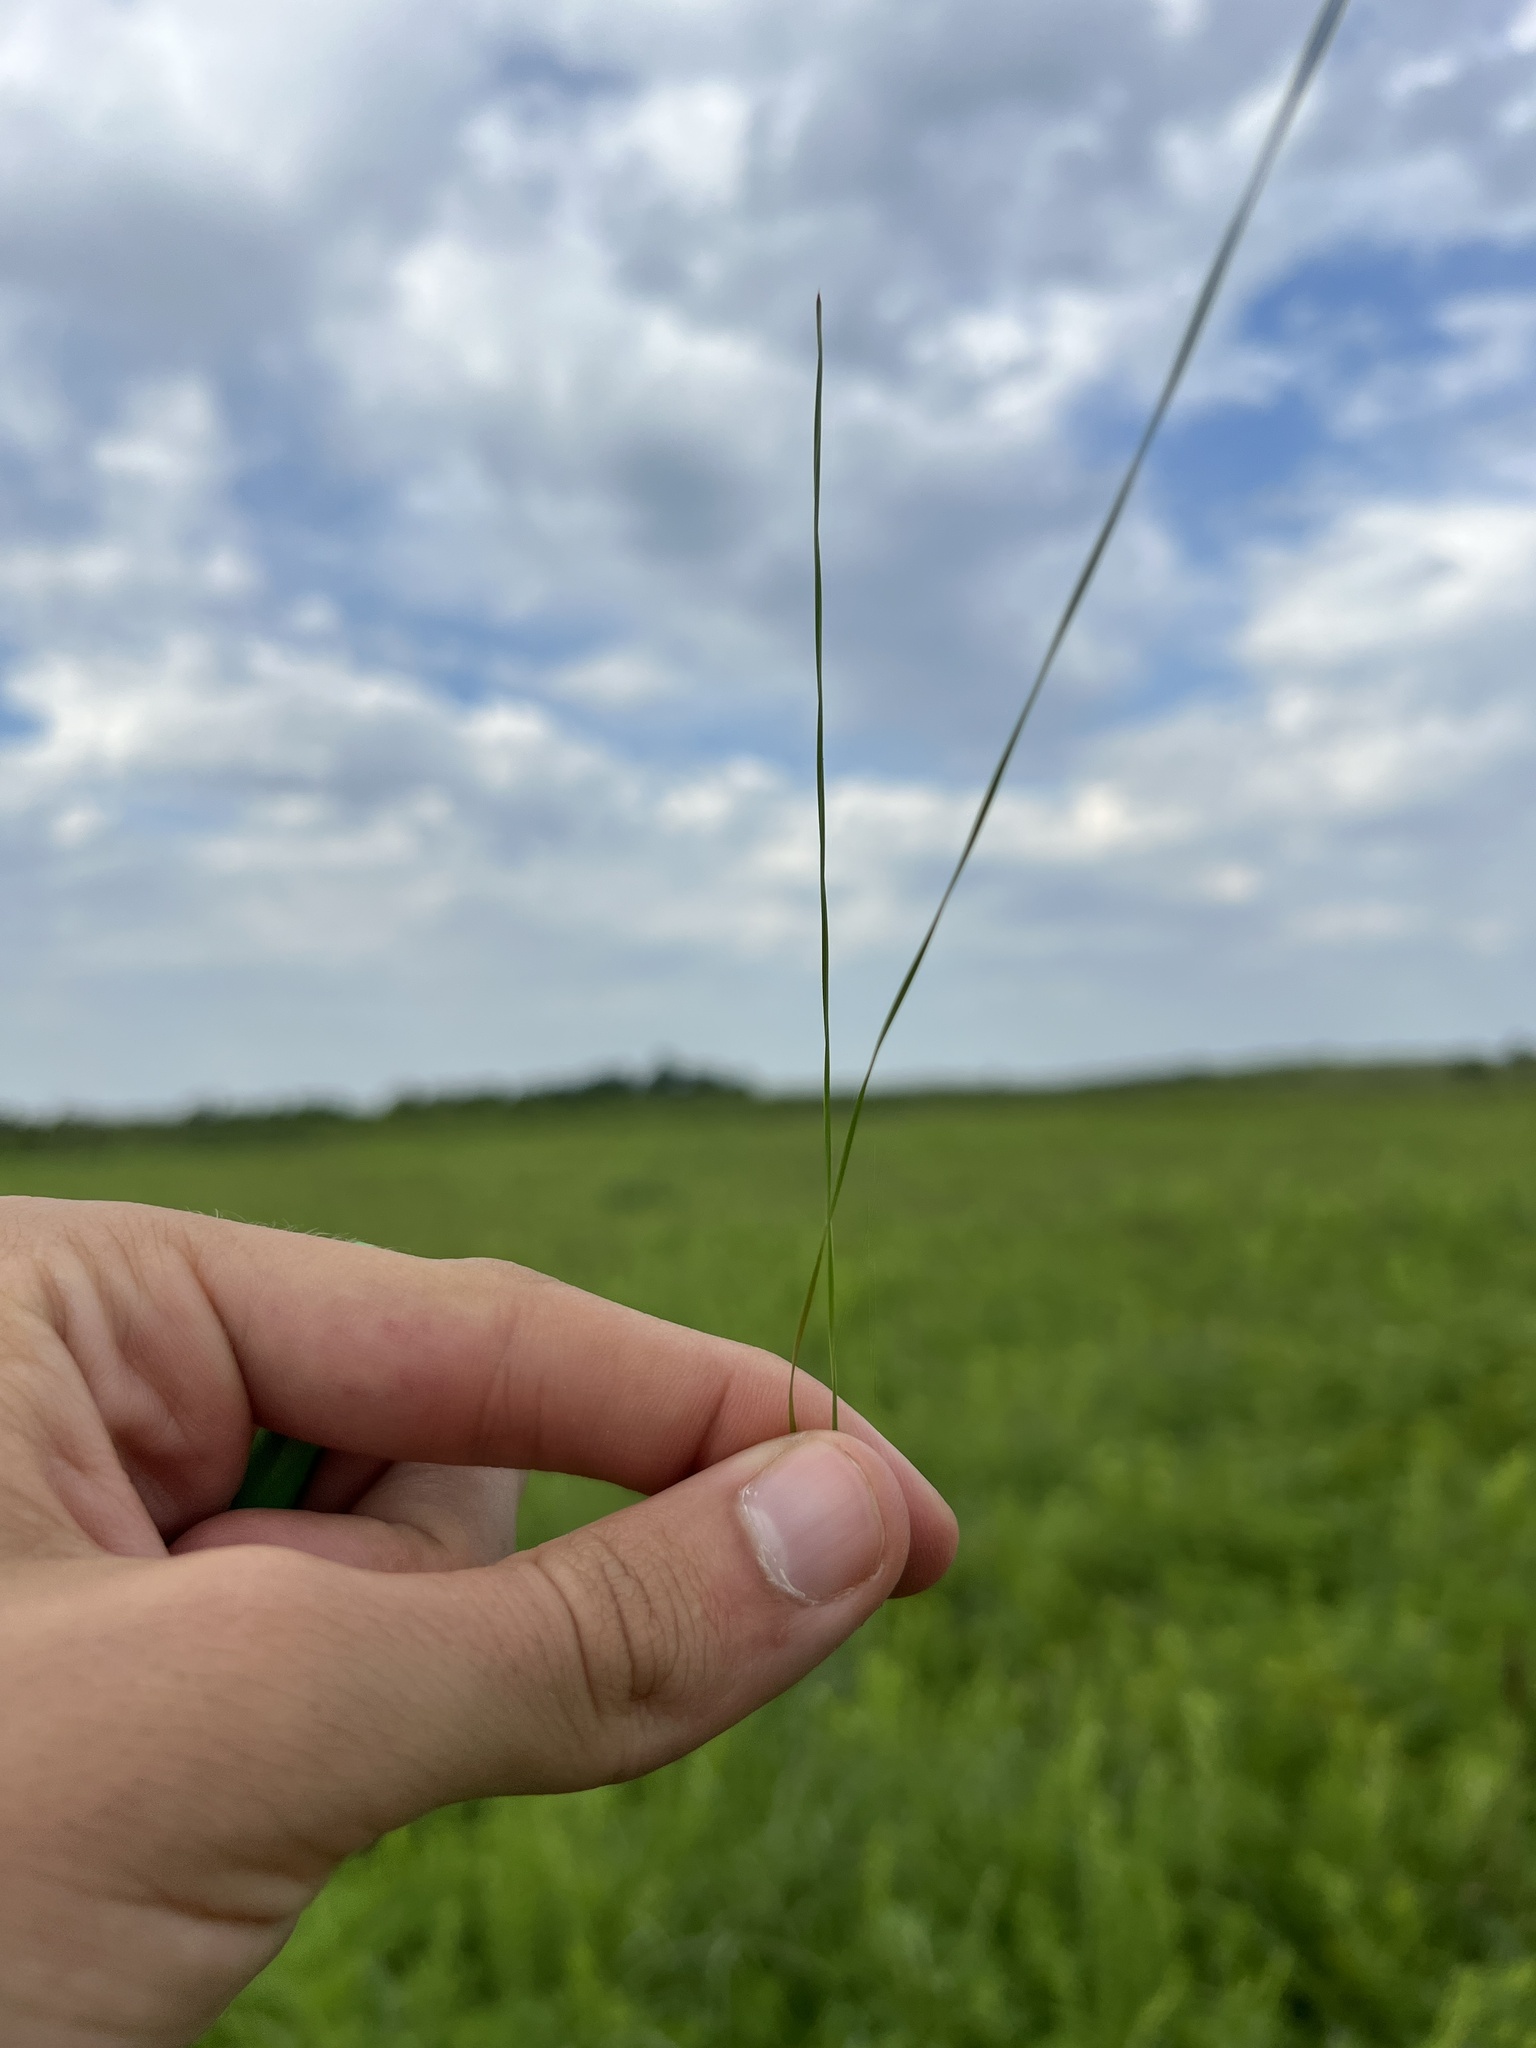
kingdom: Plantae
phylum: Tracheophyta
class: Liliopsida
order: Poales
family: Cyperaceae
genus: Eleocharis
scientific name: Eleocharis wolfii
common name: Wolf's spikerush
